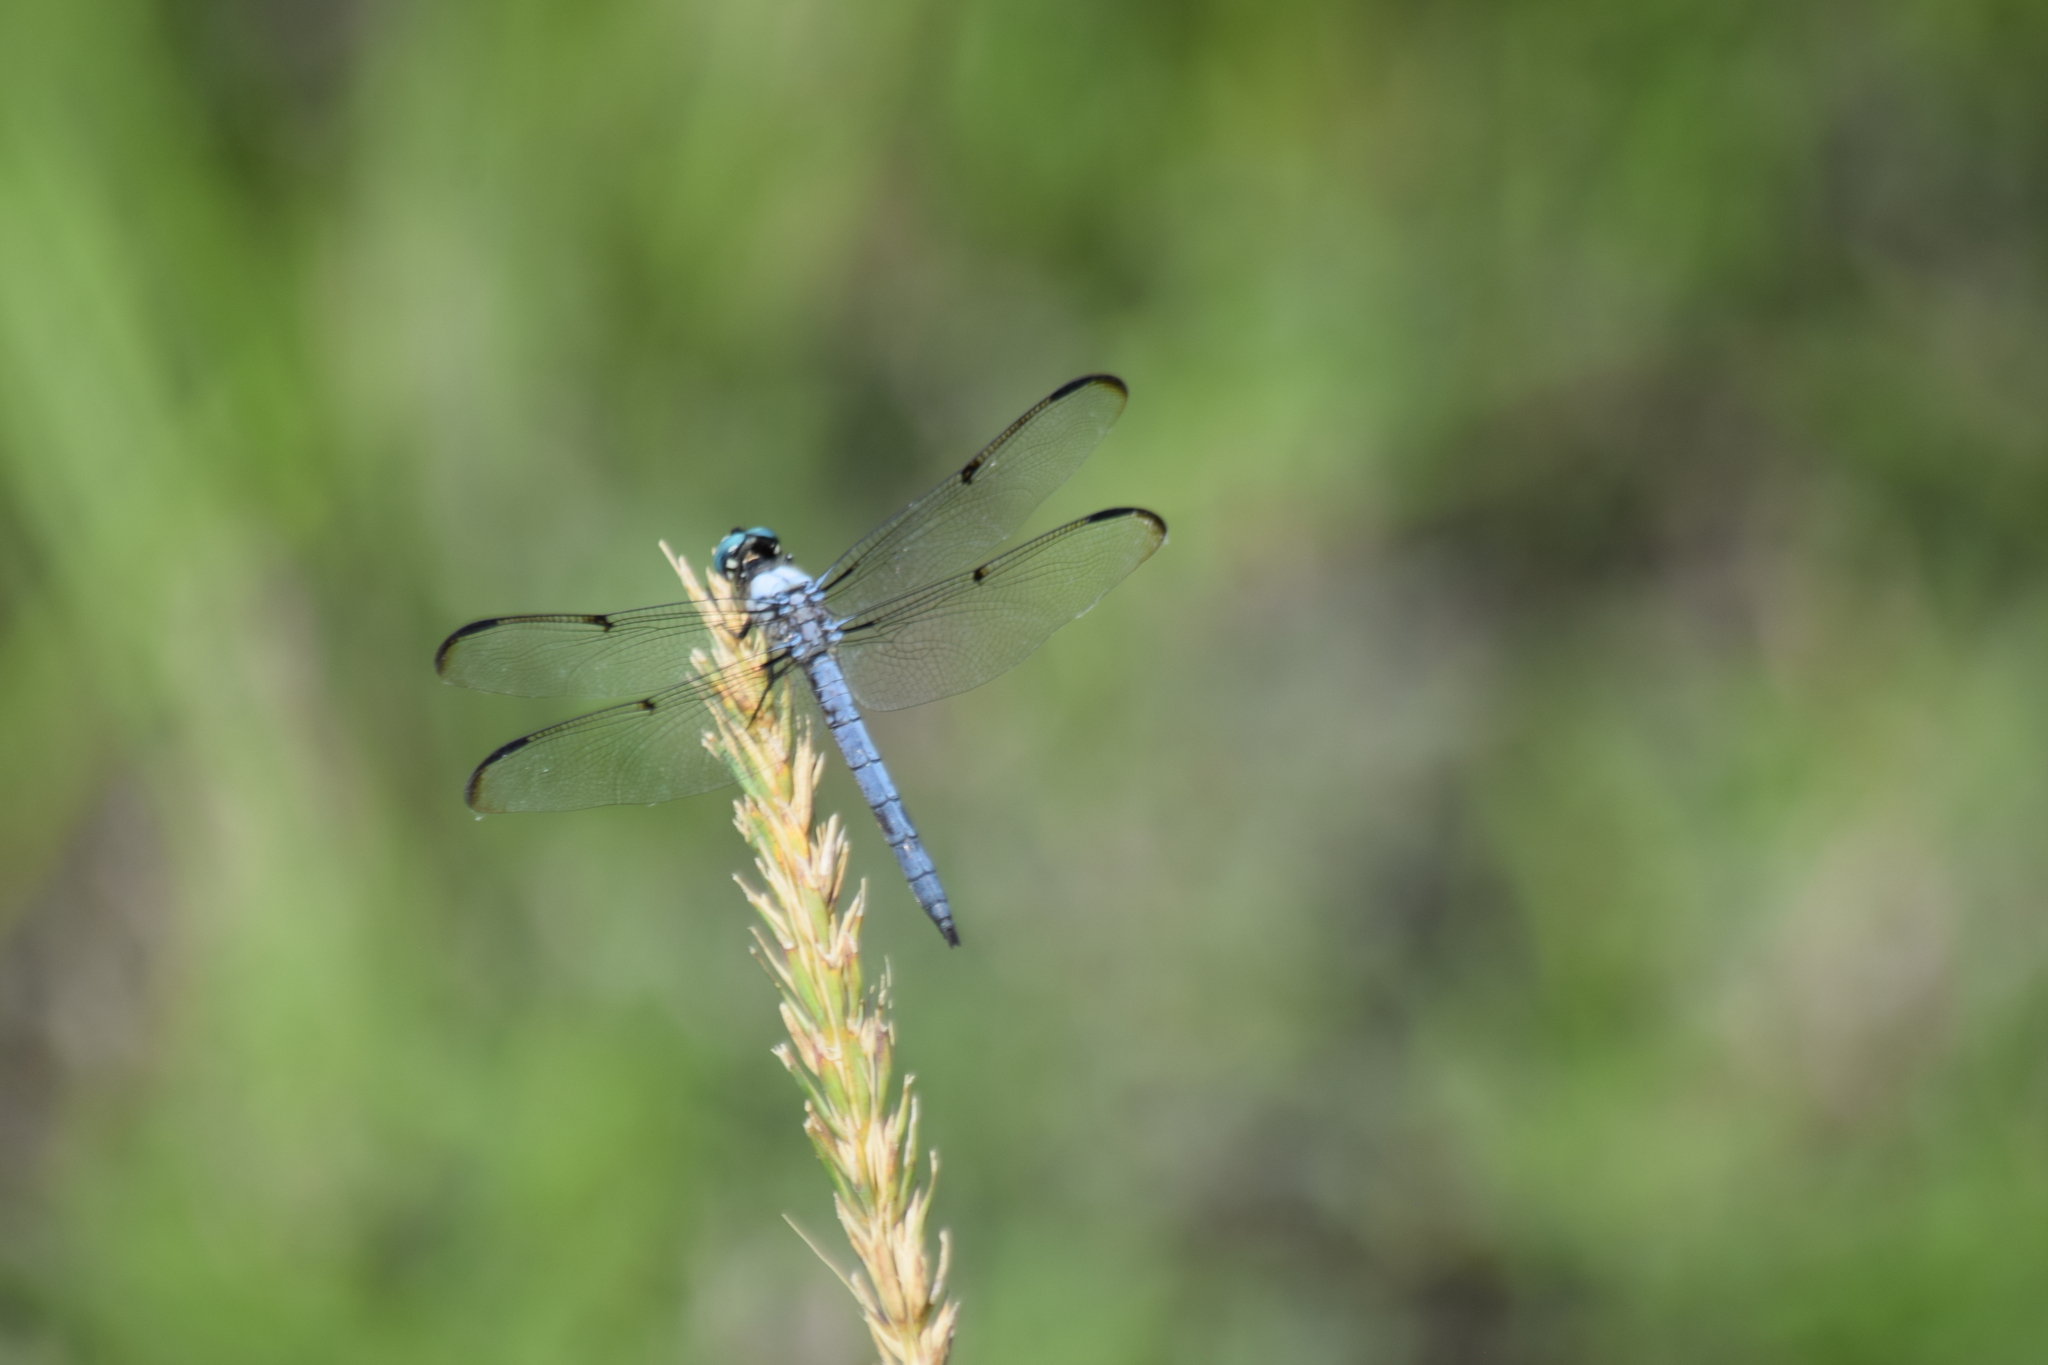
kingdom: Animalia
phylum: Arthropoda
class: Insecta
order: Odonata
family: Libellulidae
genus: Libellula
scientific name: Libellula vibrans
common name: Great blue skimmer
